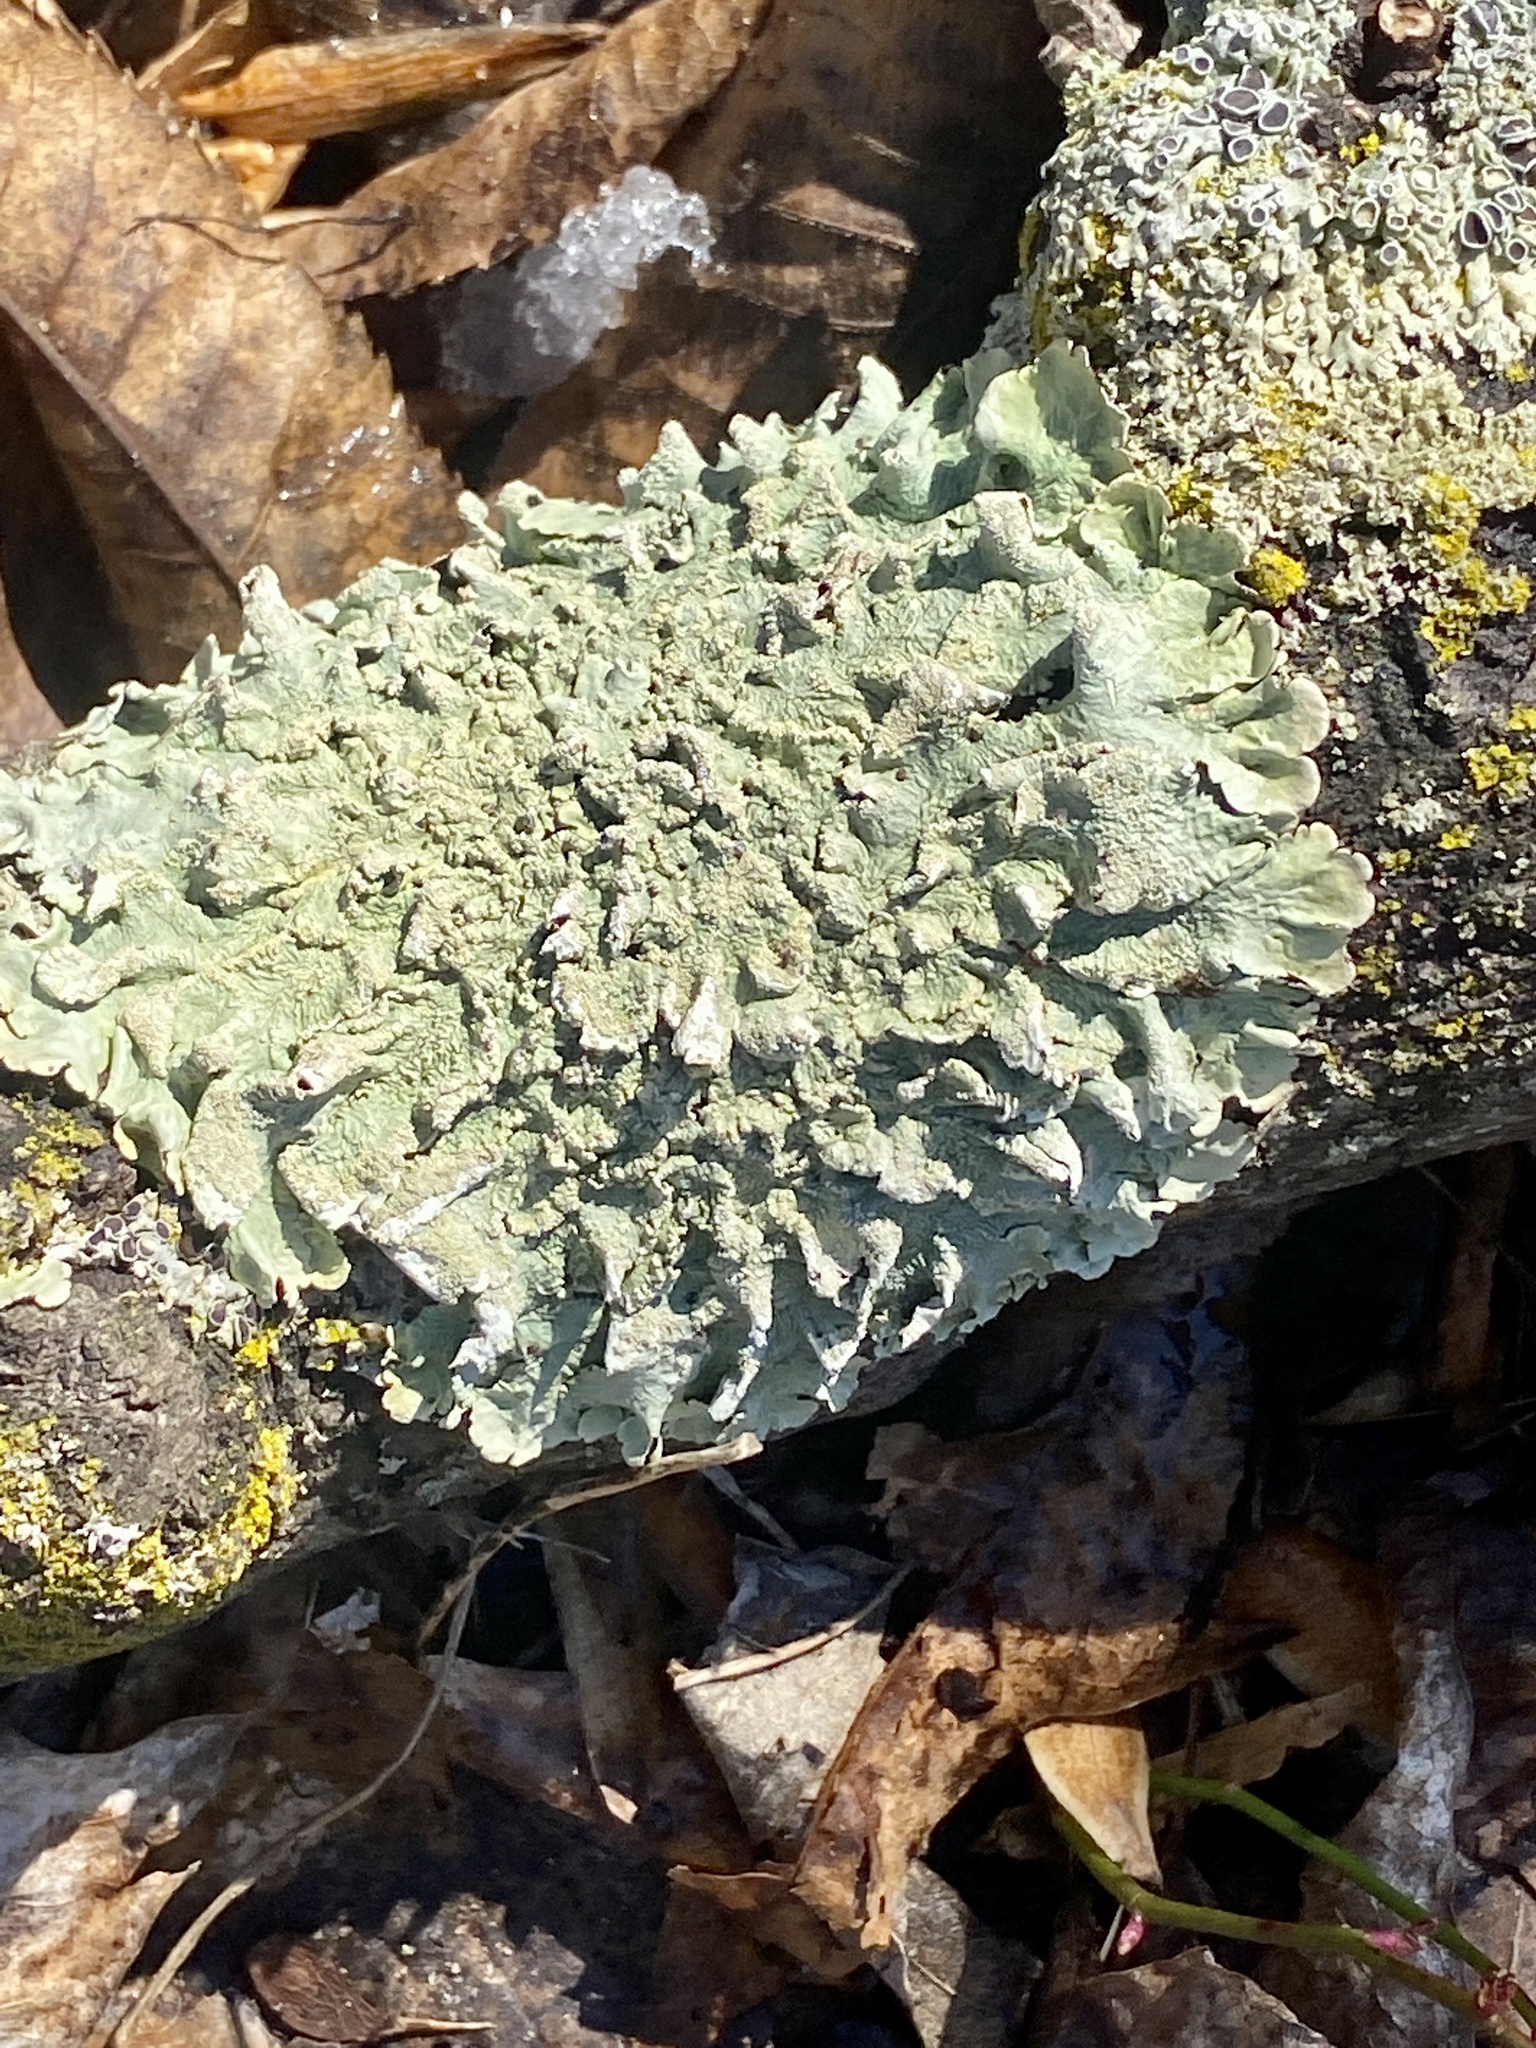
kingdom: Fungi
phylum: Ascomycota
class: Lecanoromycetes
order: Lecanorales
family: Parmeliaceae
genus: Flavoparmelia
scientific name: Flavoparmelia caperata
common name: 40-mile per hour lichen
